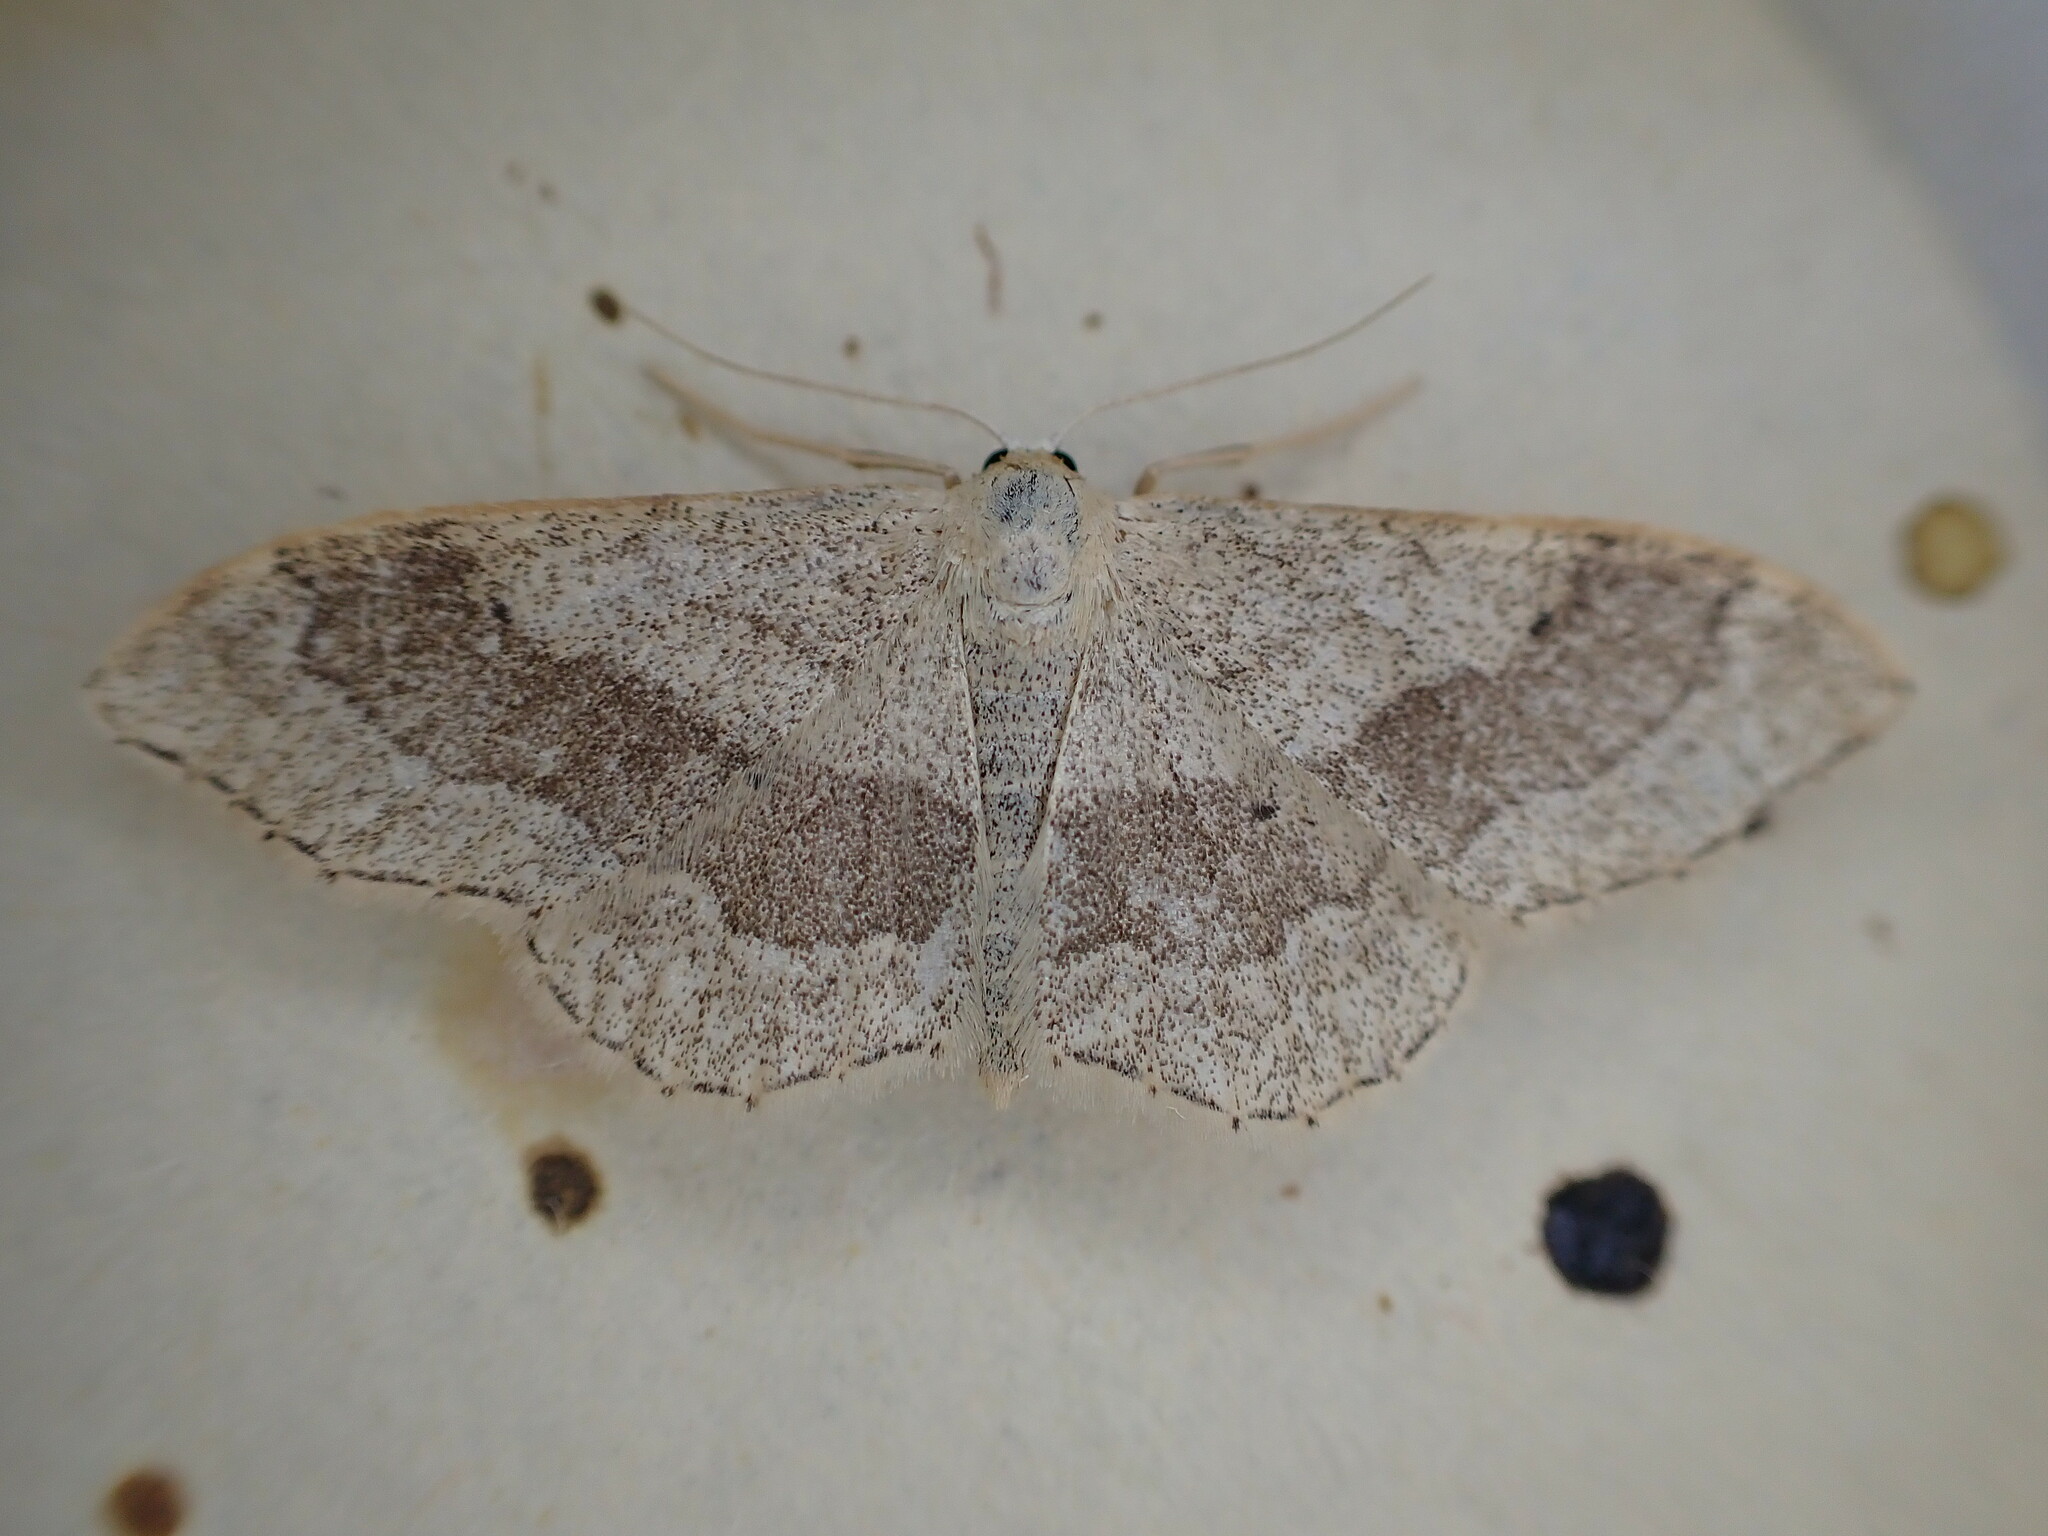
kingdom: Animalia
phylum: Arthropoda
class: Insecta
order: Lepidoptera
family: Geometridae
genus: Idaea
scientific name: Idaea aversata
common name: Riband wave
